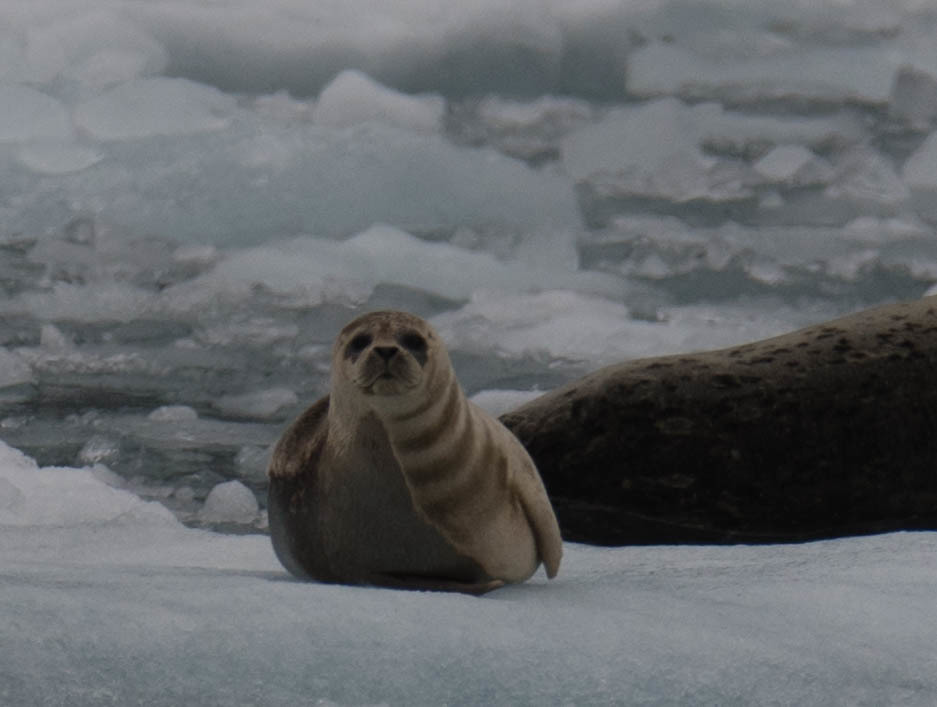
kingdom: Animalia
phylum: Chordata
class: Mammalia
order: Carnivora
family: Phocidae
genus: Phoca
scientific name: Phoca vitulina
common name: Harbor seal
